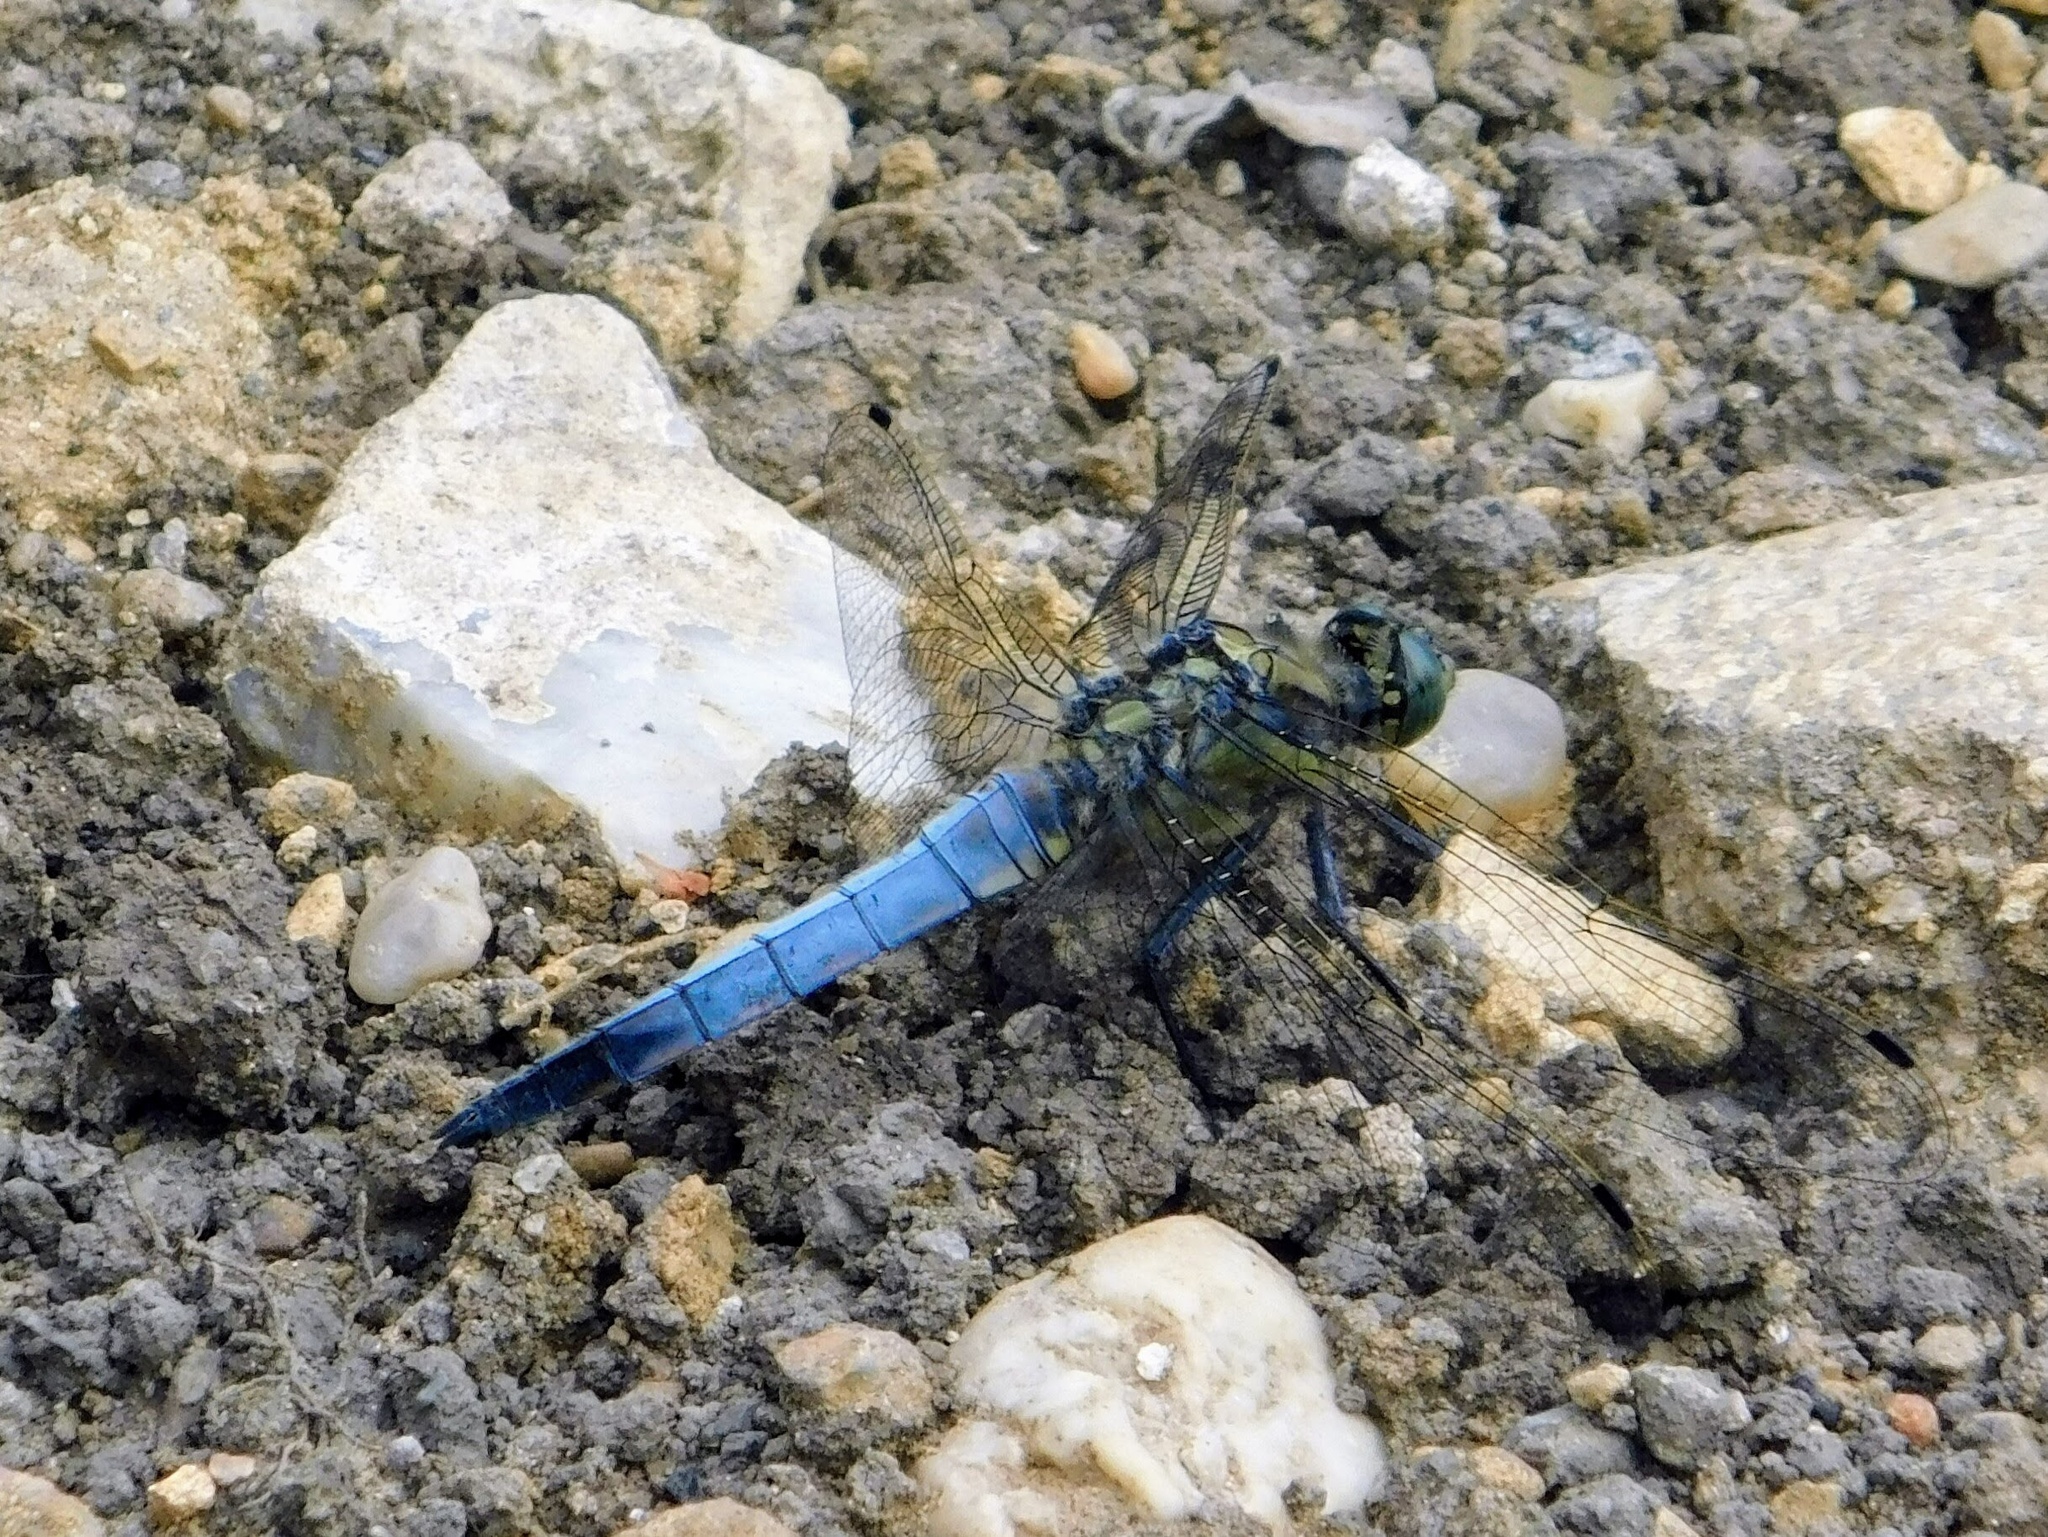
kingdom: Animalia
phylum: Arthropoda
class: Insecta
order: Odonata
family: Libellulidae
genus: Orthetrum
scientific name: Orthetrum cancellatum
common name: Black-tailed skimmer
